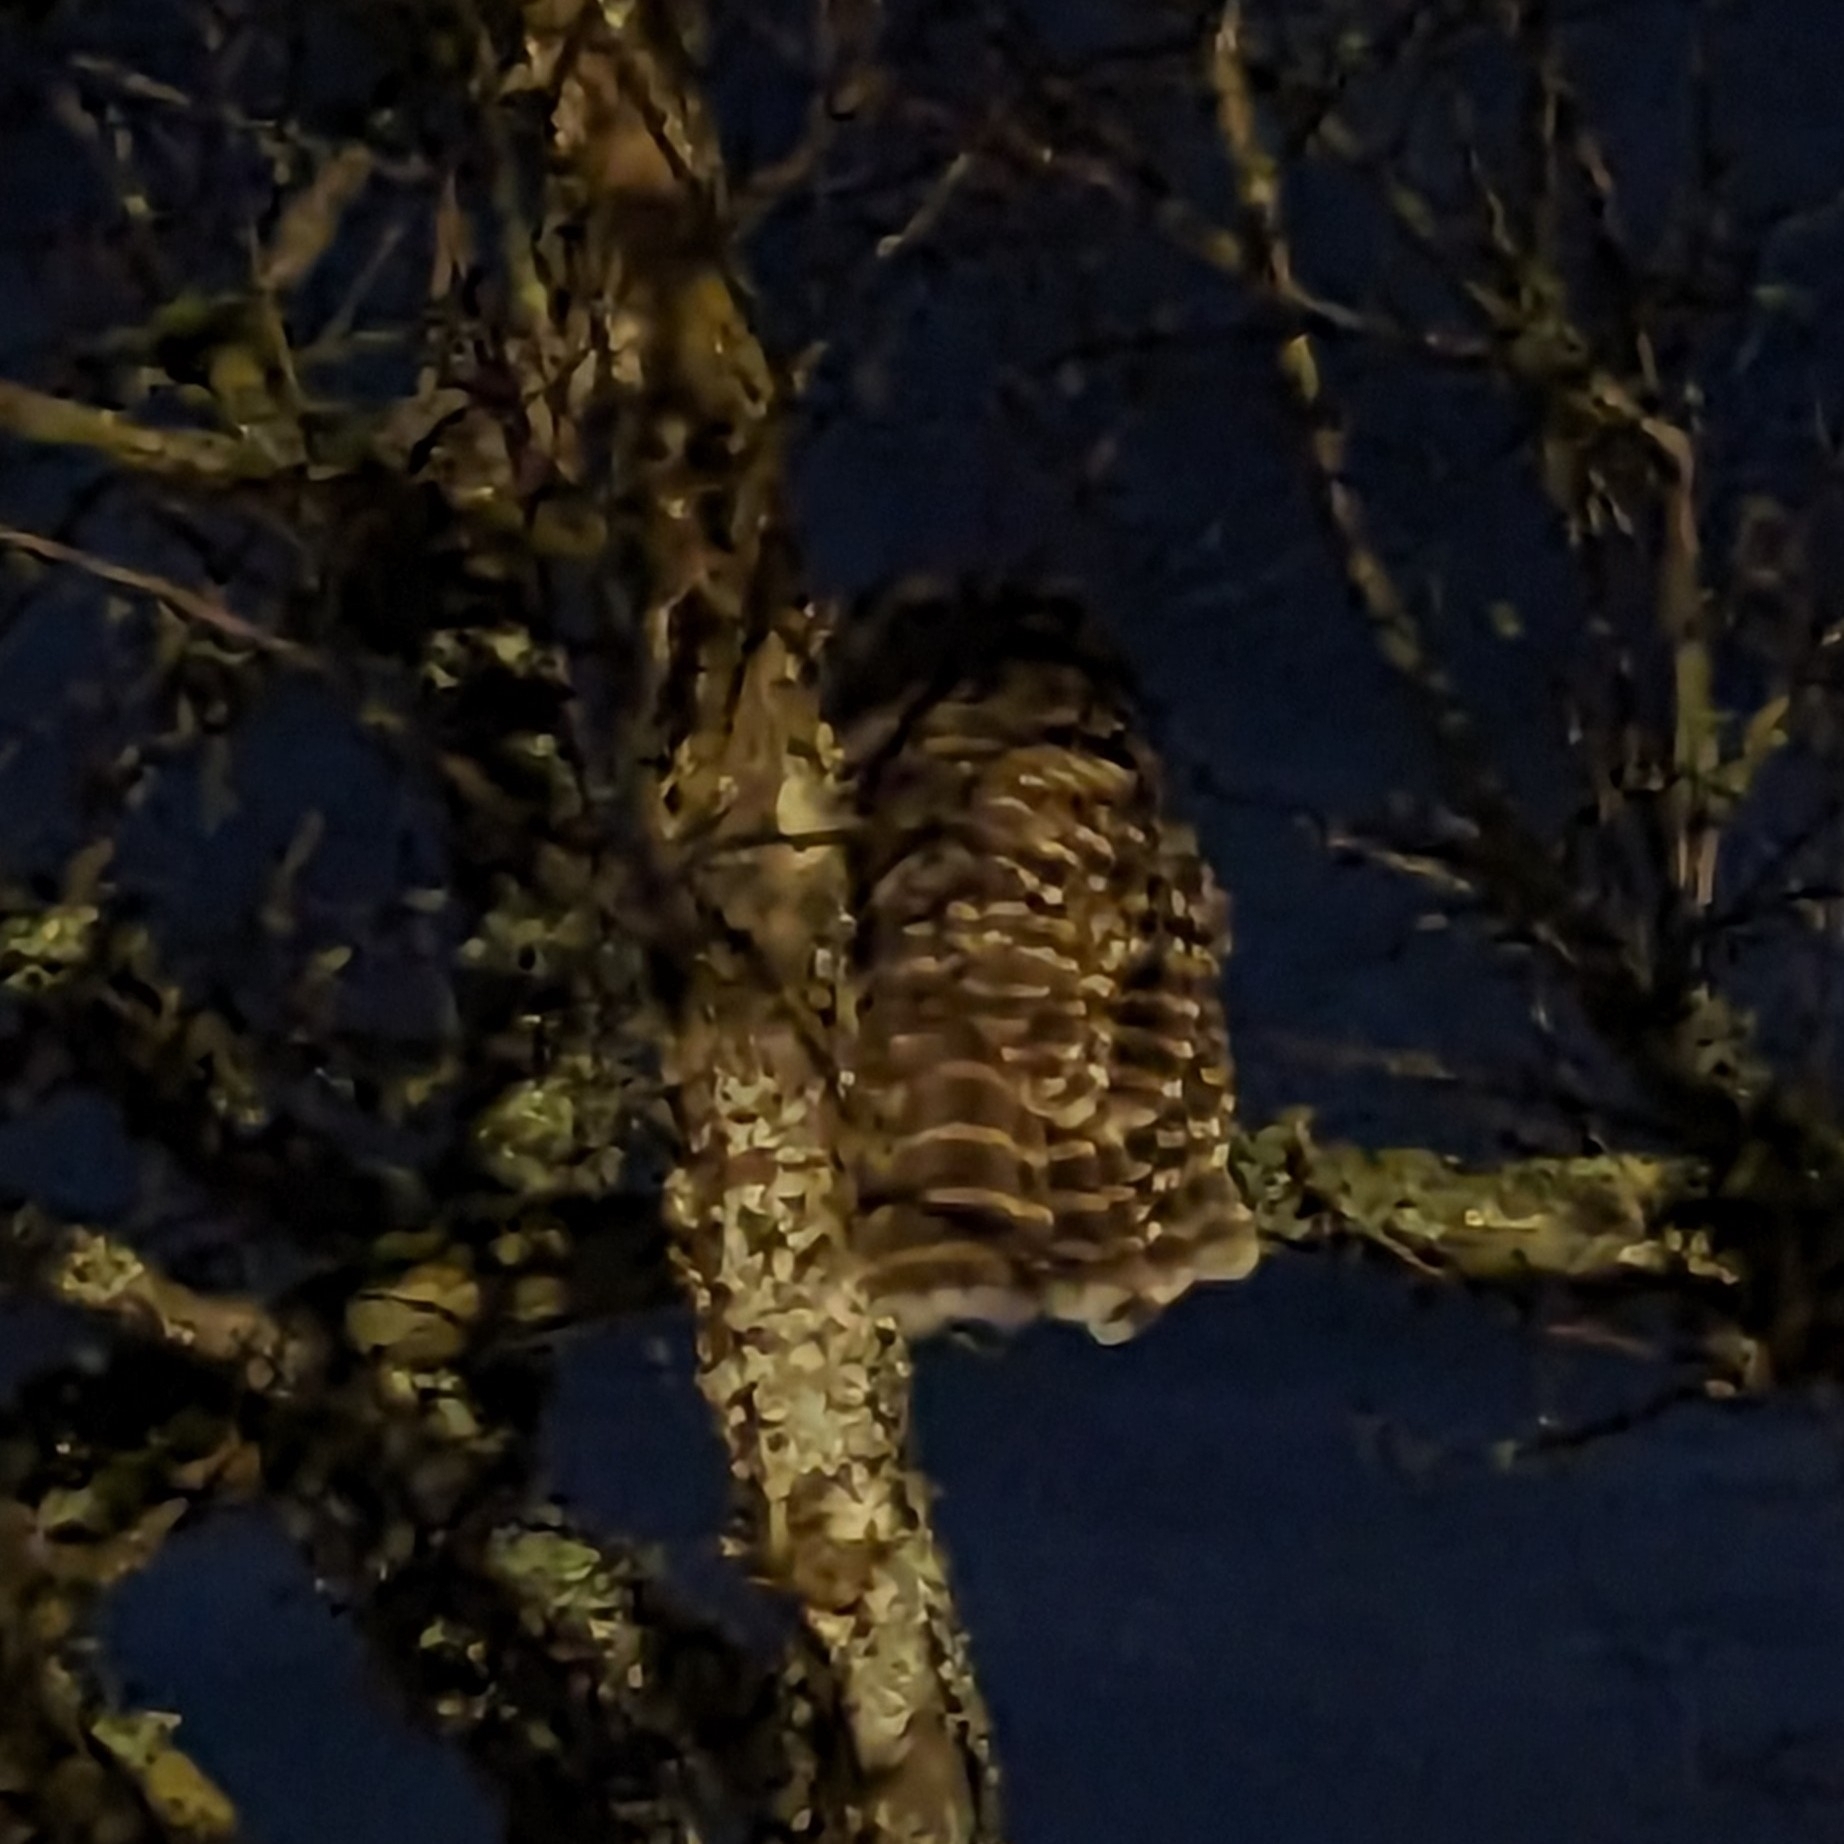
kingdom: Animalia
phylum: Chordata
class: Aves
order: Strigiformes
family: Strigidae
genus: Strix
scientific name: Strix varia
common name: Barred owl
